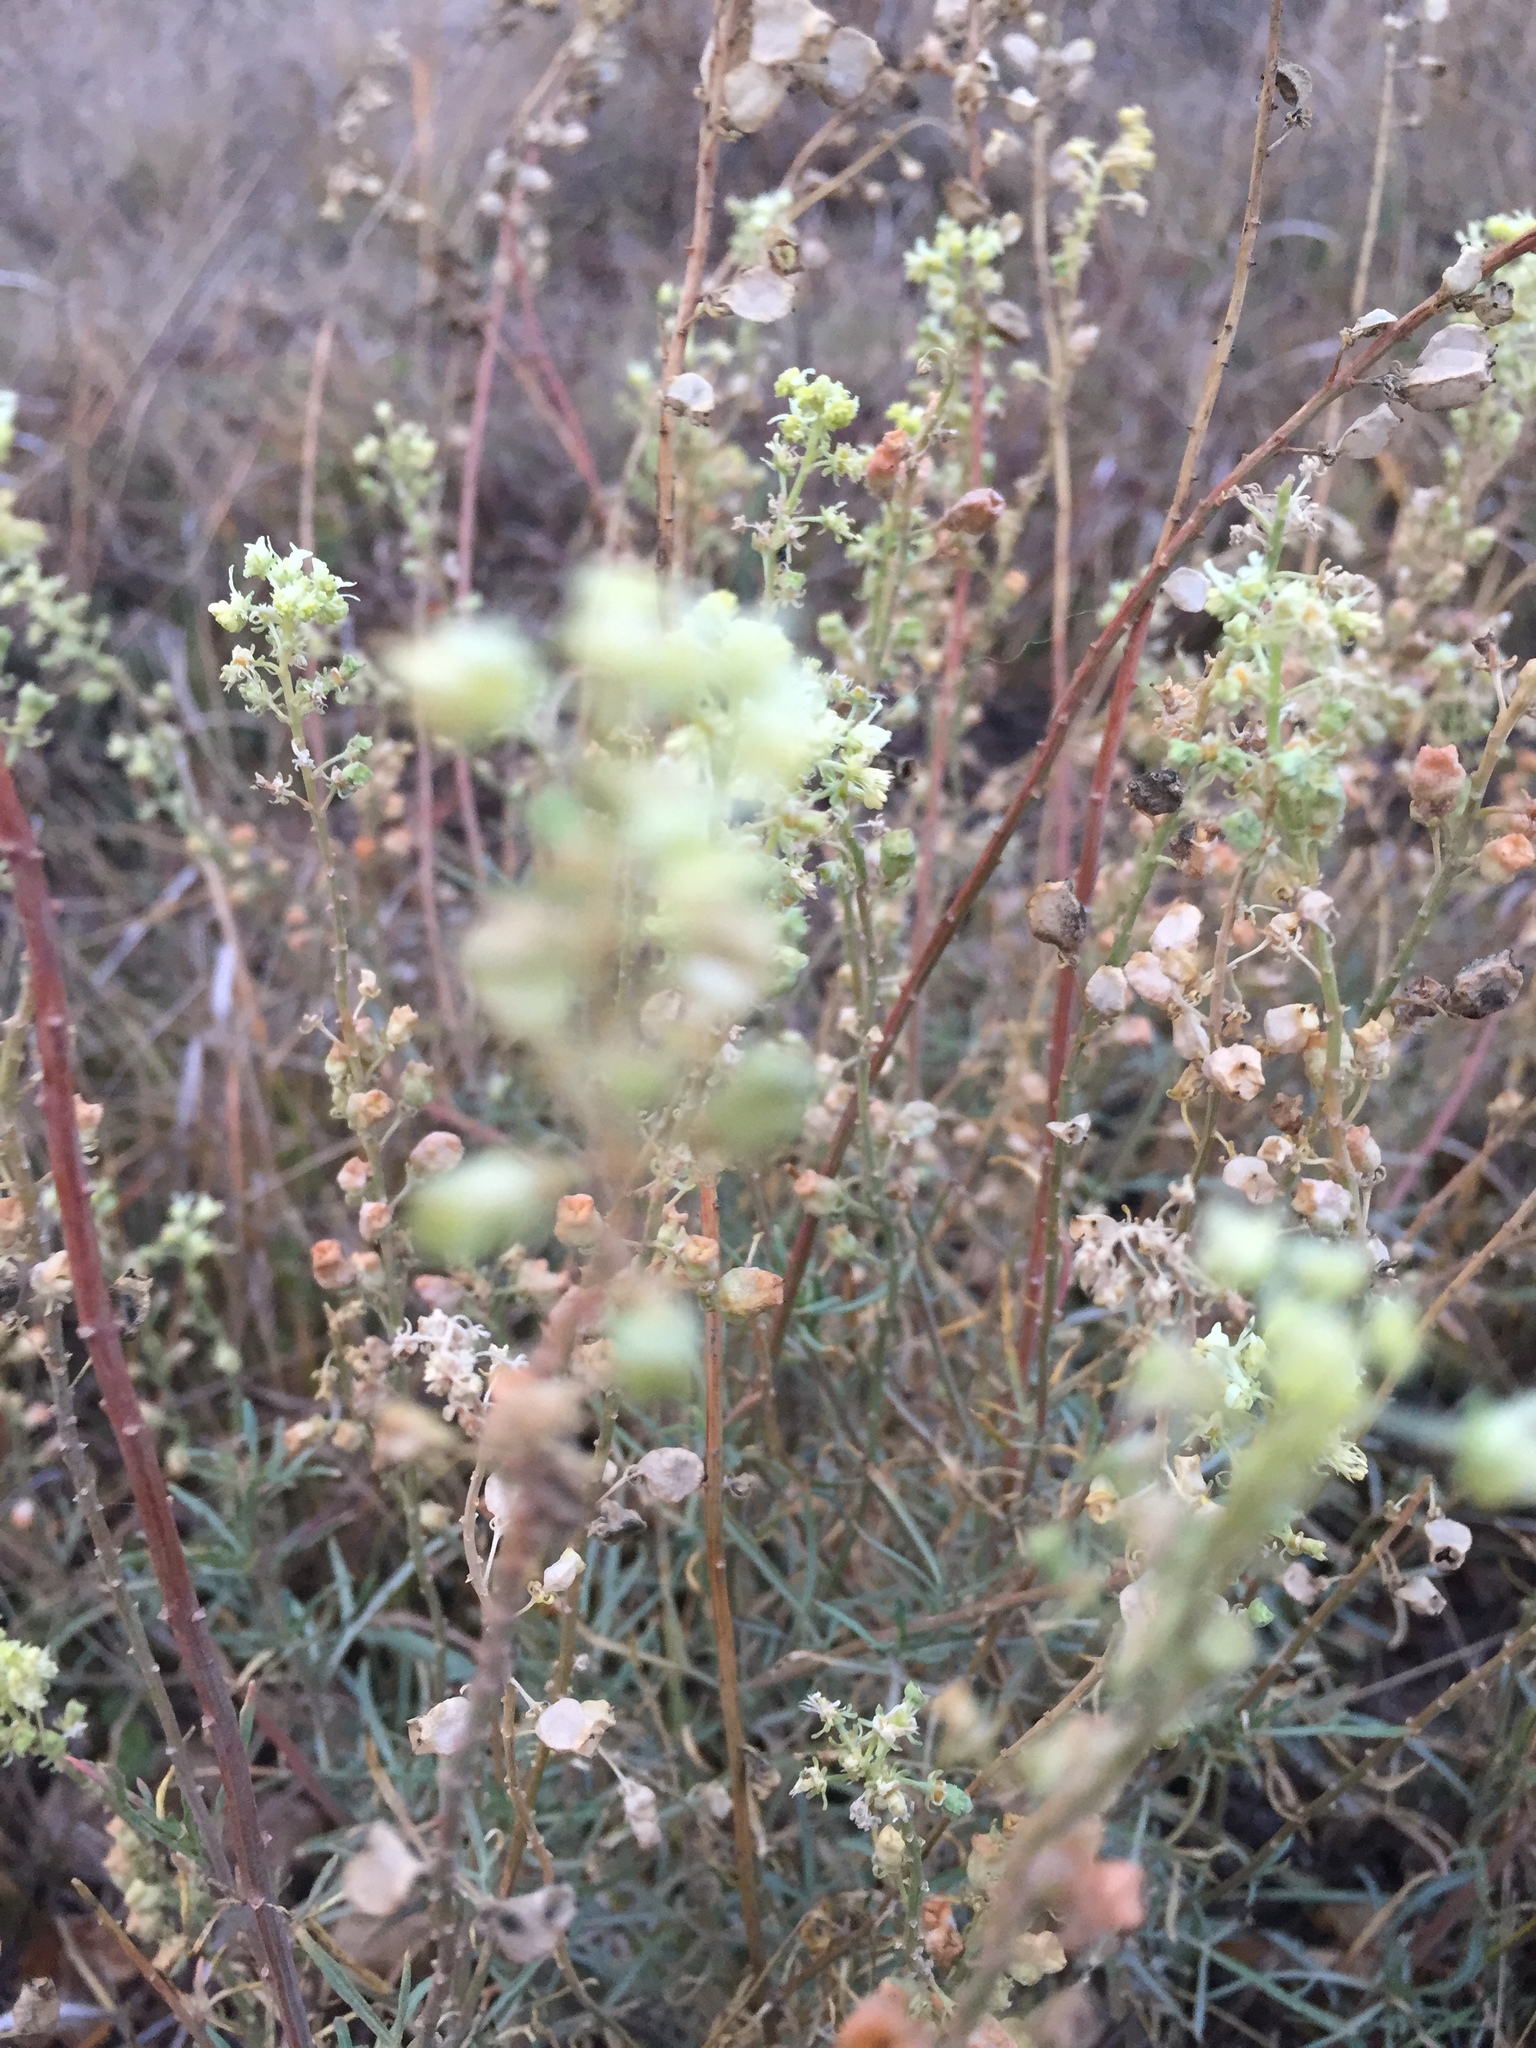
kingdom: Plantae
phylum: Tracheophyta
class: Magnoliopsida
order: Brassicales
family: Resedaceae
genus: Reseda
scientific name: Reseda lutea
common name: Wild mignonette
